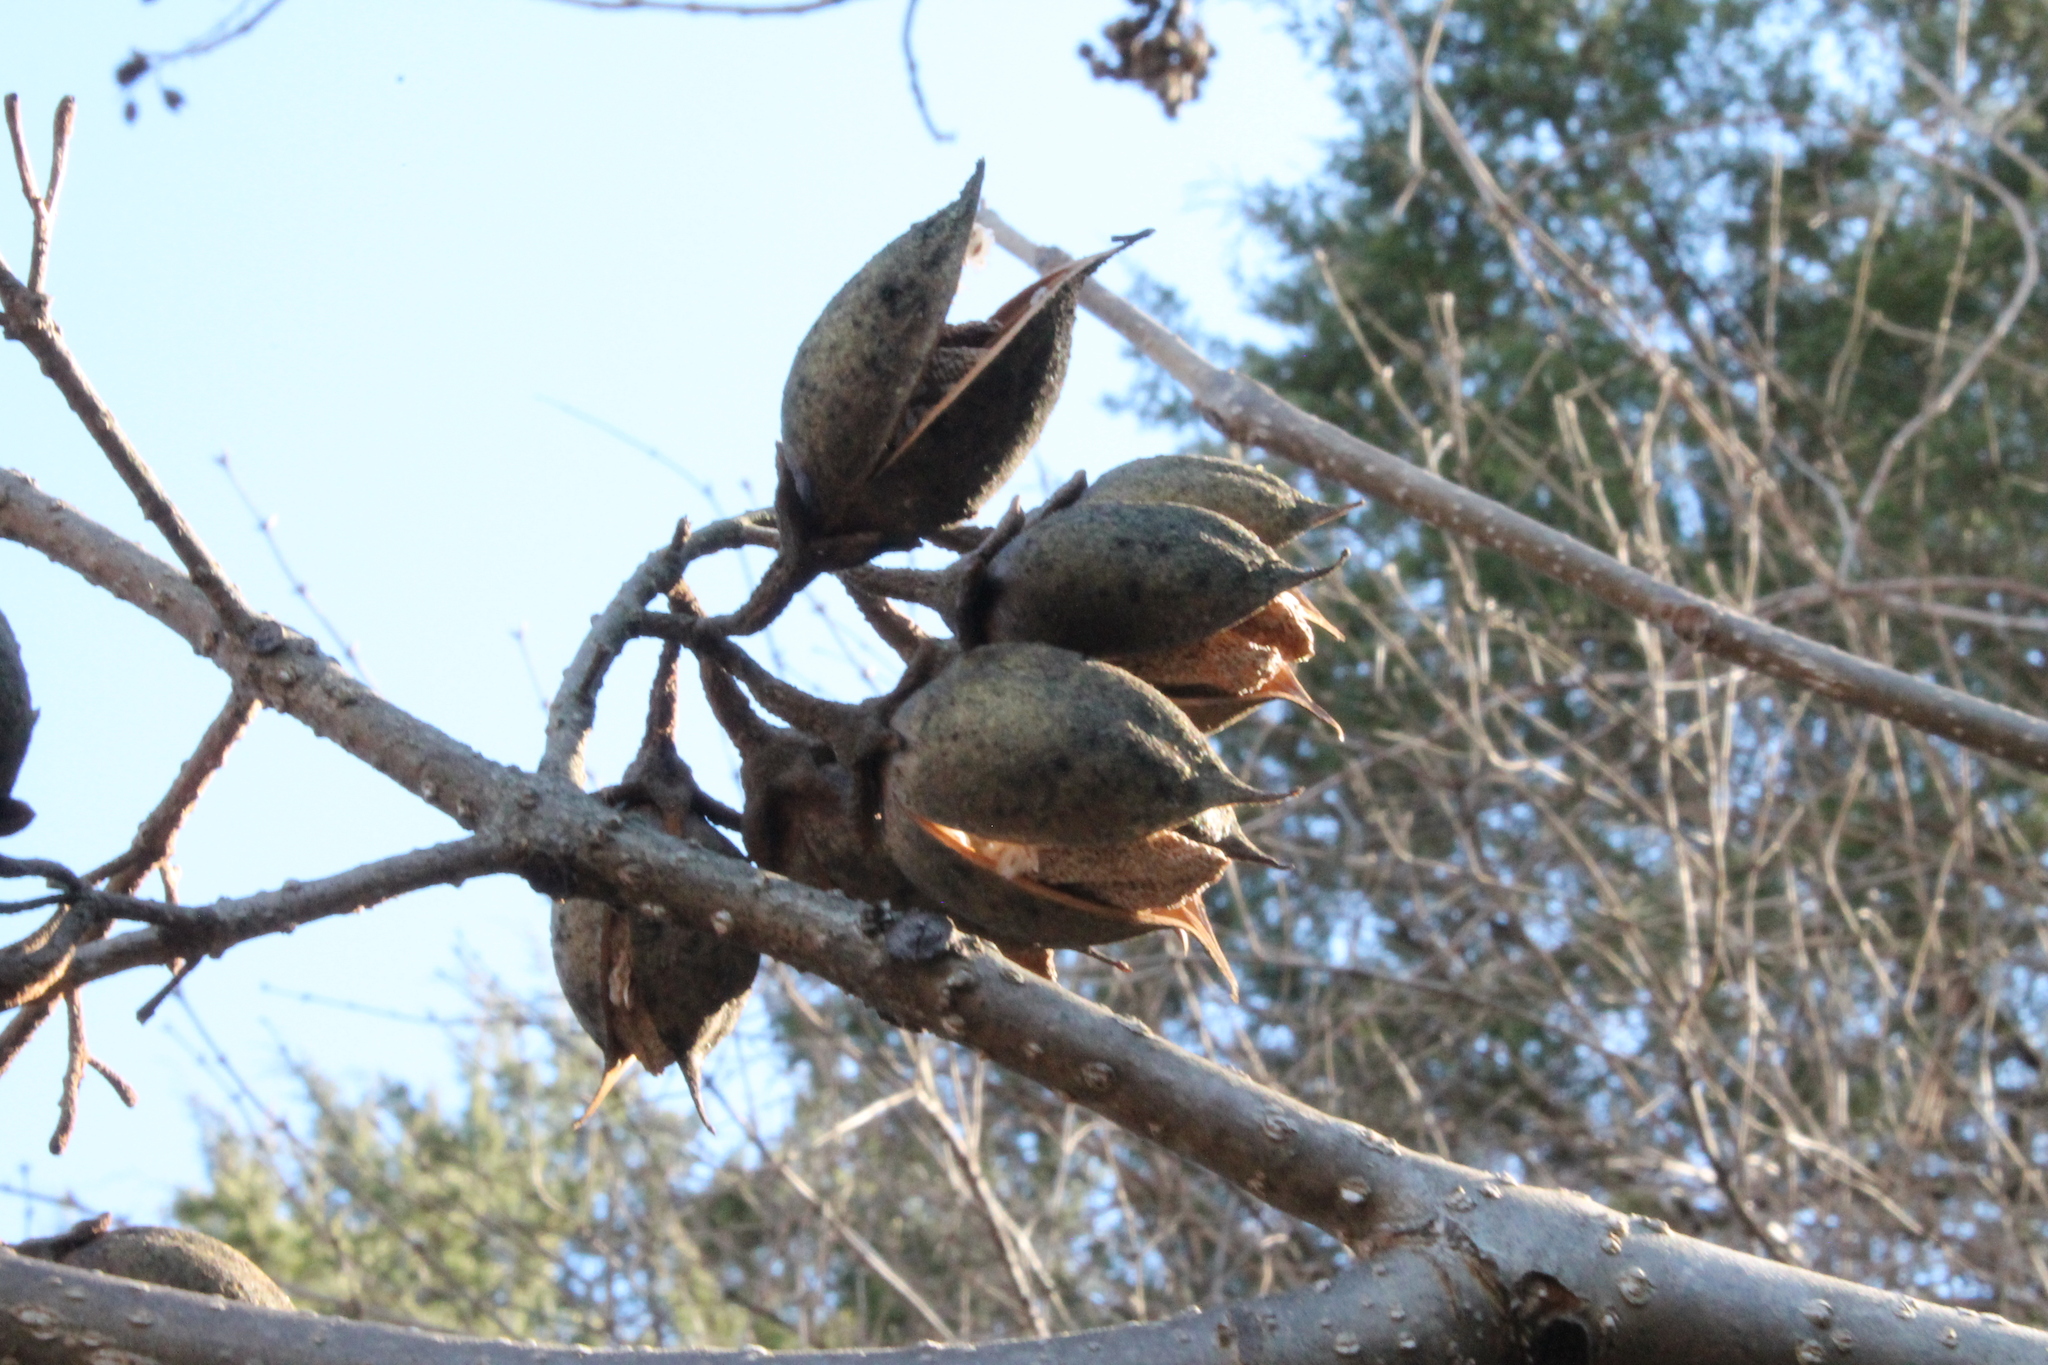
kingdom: Plantae
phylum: Tracheophyta
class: Magnoliopsida
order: Lamiales
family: Paulowniaceae
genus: Paulownia
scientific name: Paulownia tomentosa
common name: Foxglove-tree
